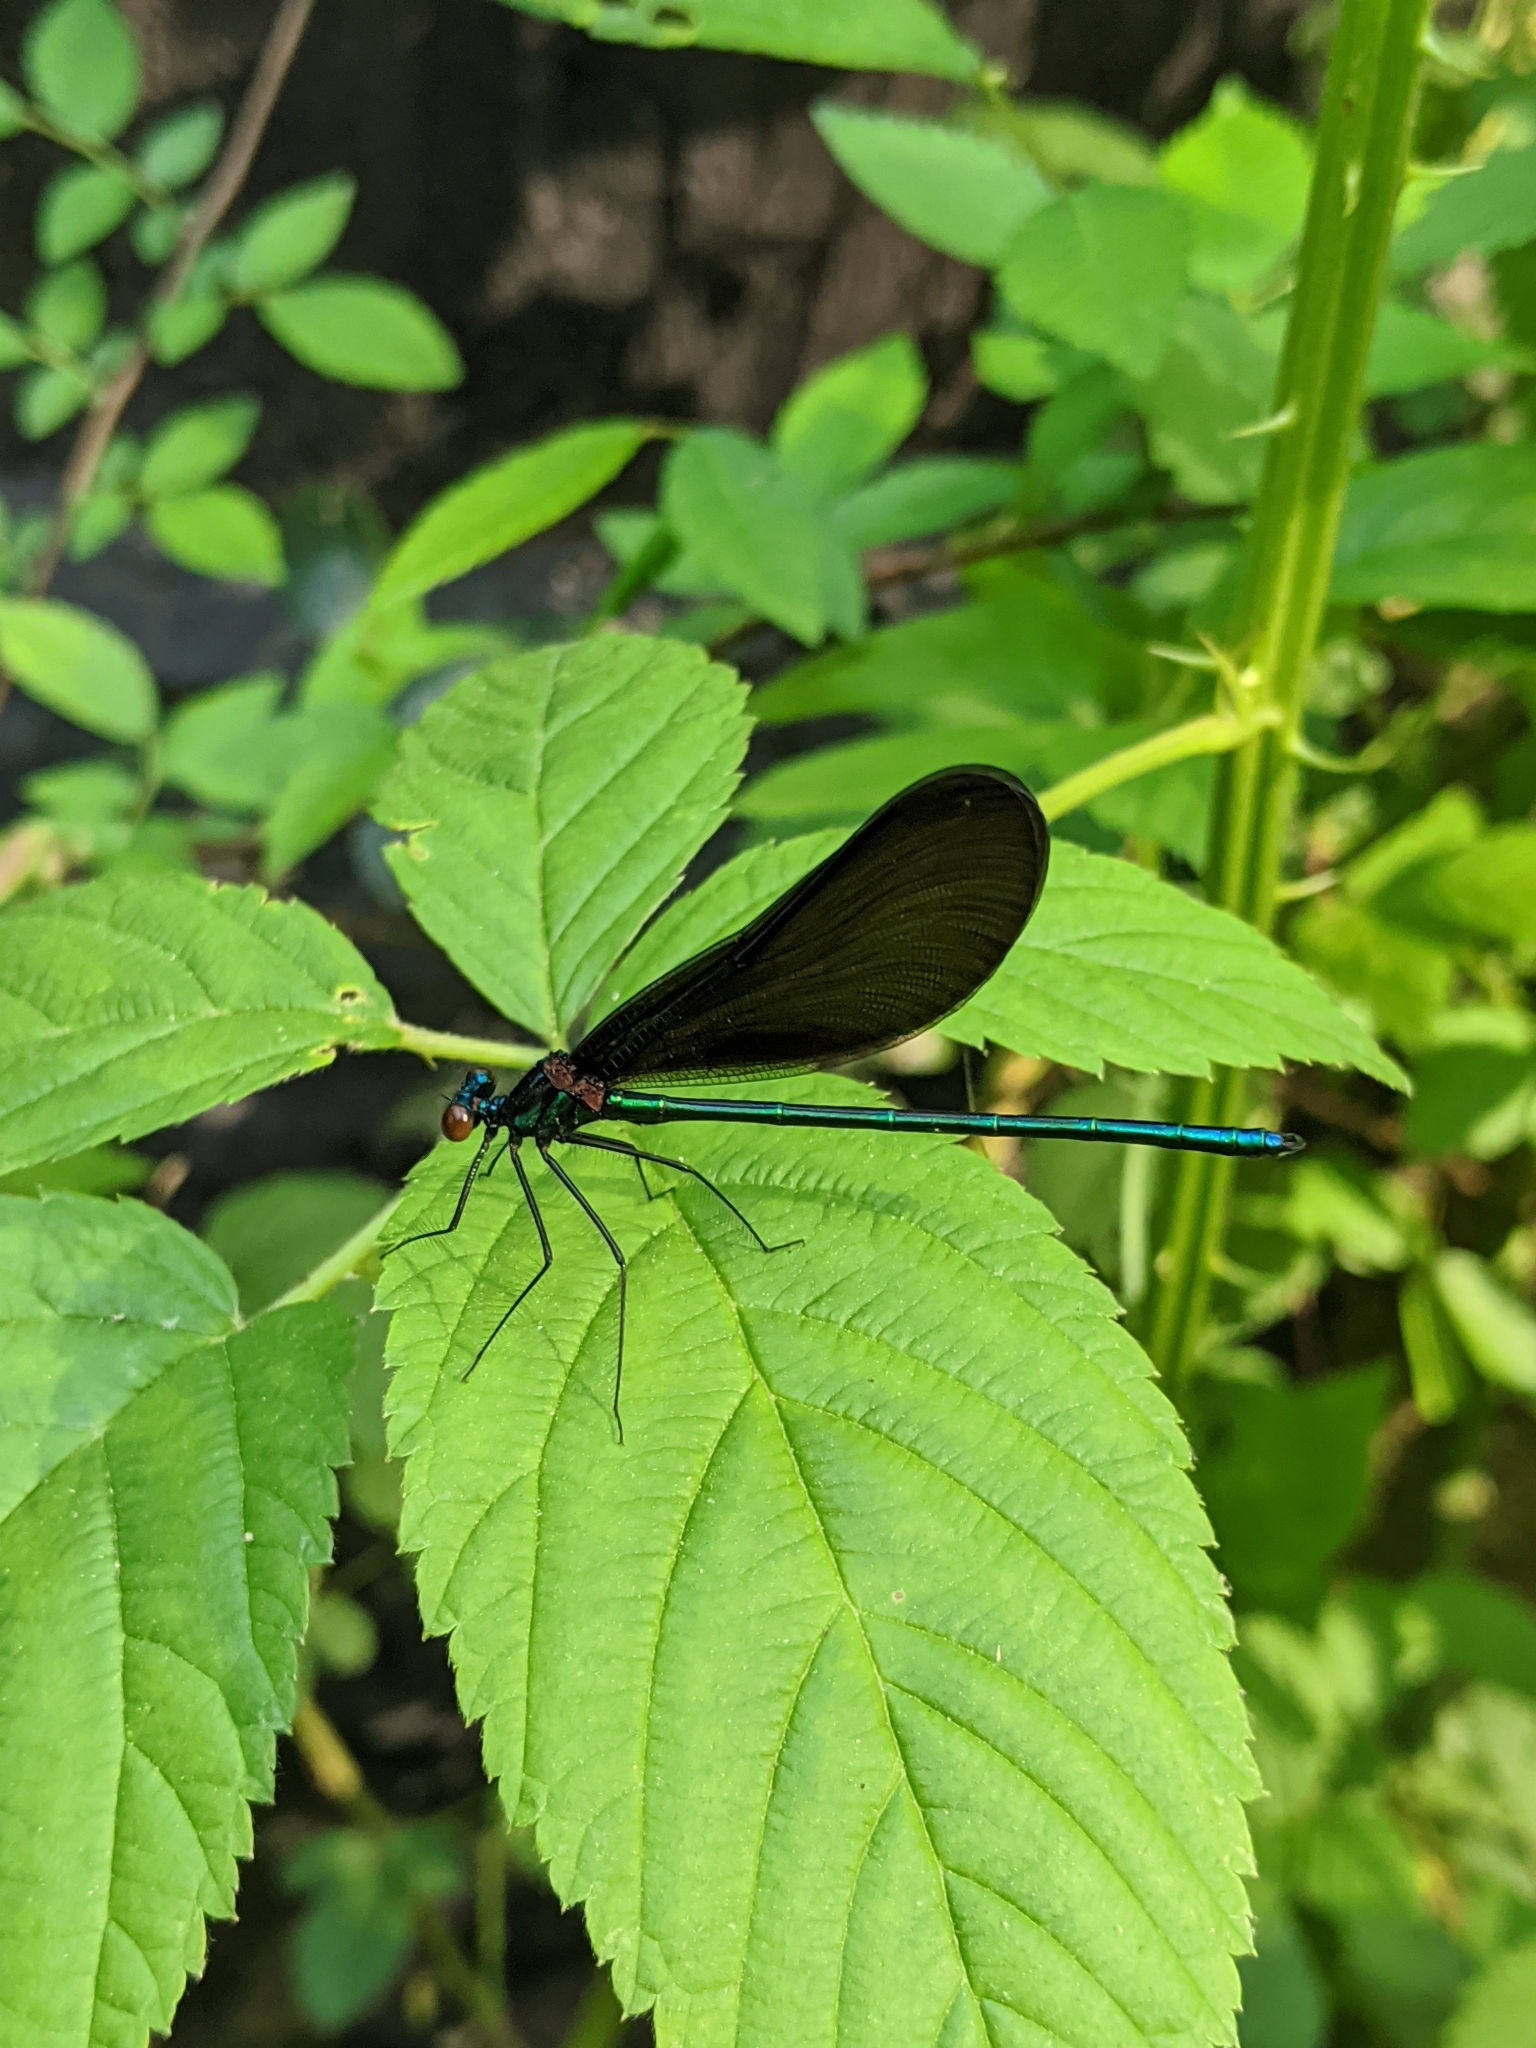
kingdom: Animalia
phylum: Arthropoda
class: Insecta
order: Odonata
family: Calopterygidae
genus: Calopteryx
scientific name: Calopteryx maculata
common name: Ebony jewelwing
